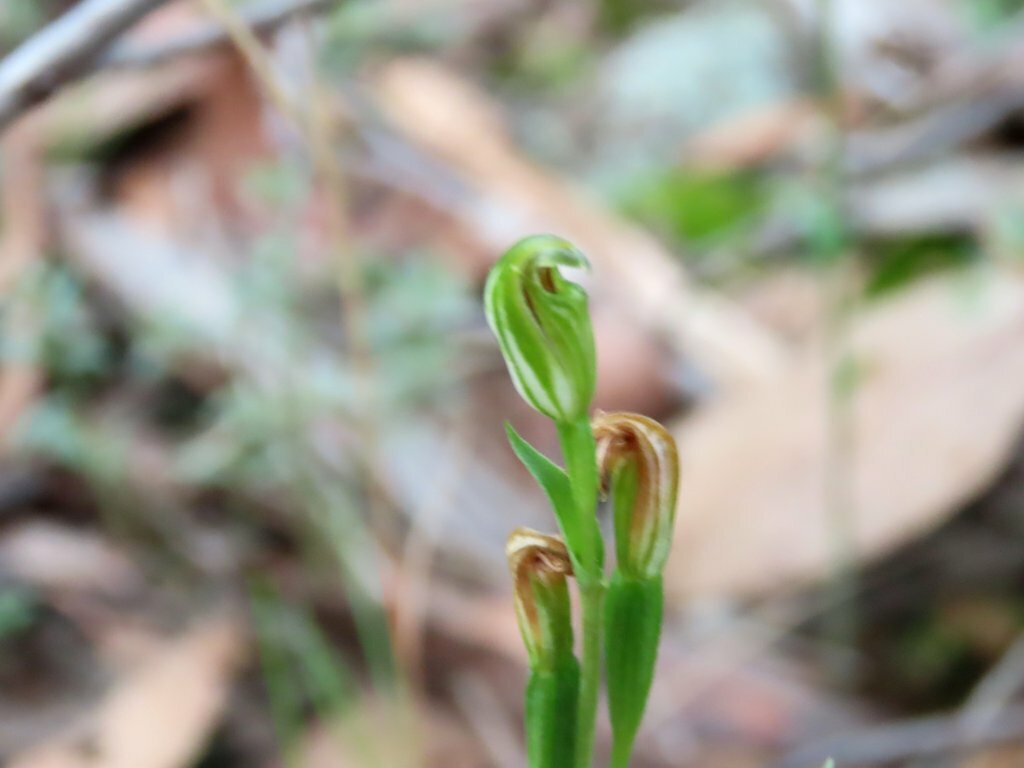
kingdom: Plantae
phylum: Tracheophyta
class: Liliopsida
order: Asparagales
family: Orchidaceae
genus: Pterostylis
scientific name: Pterostylis parviflora
